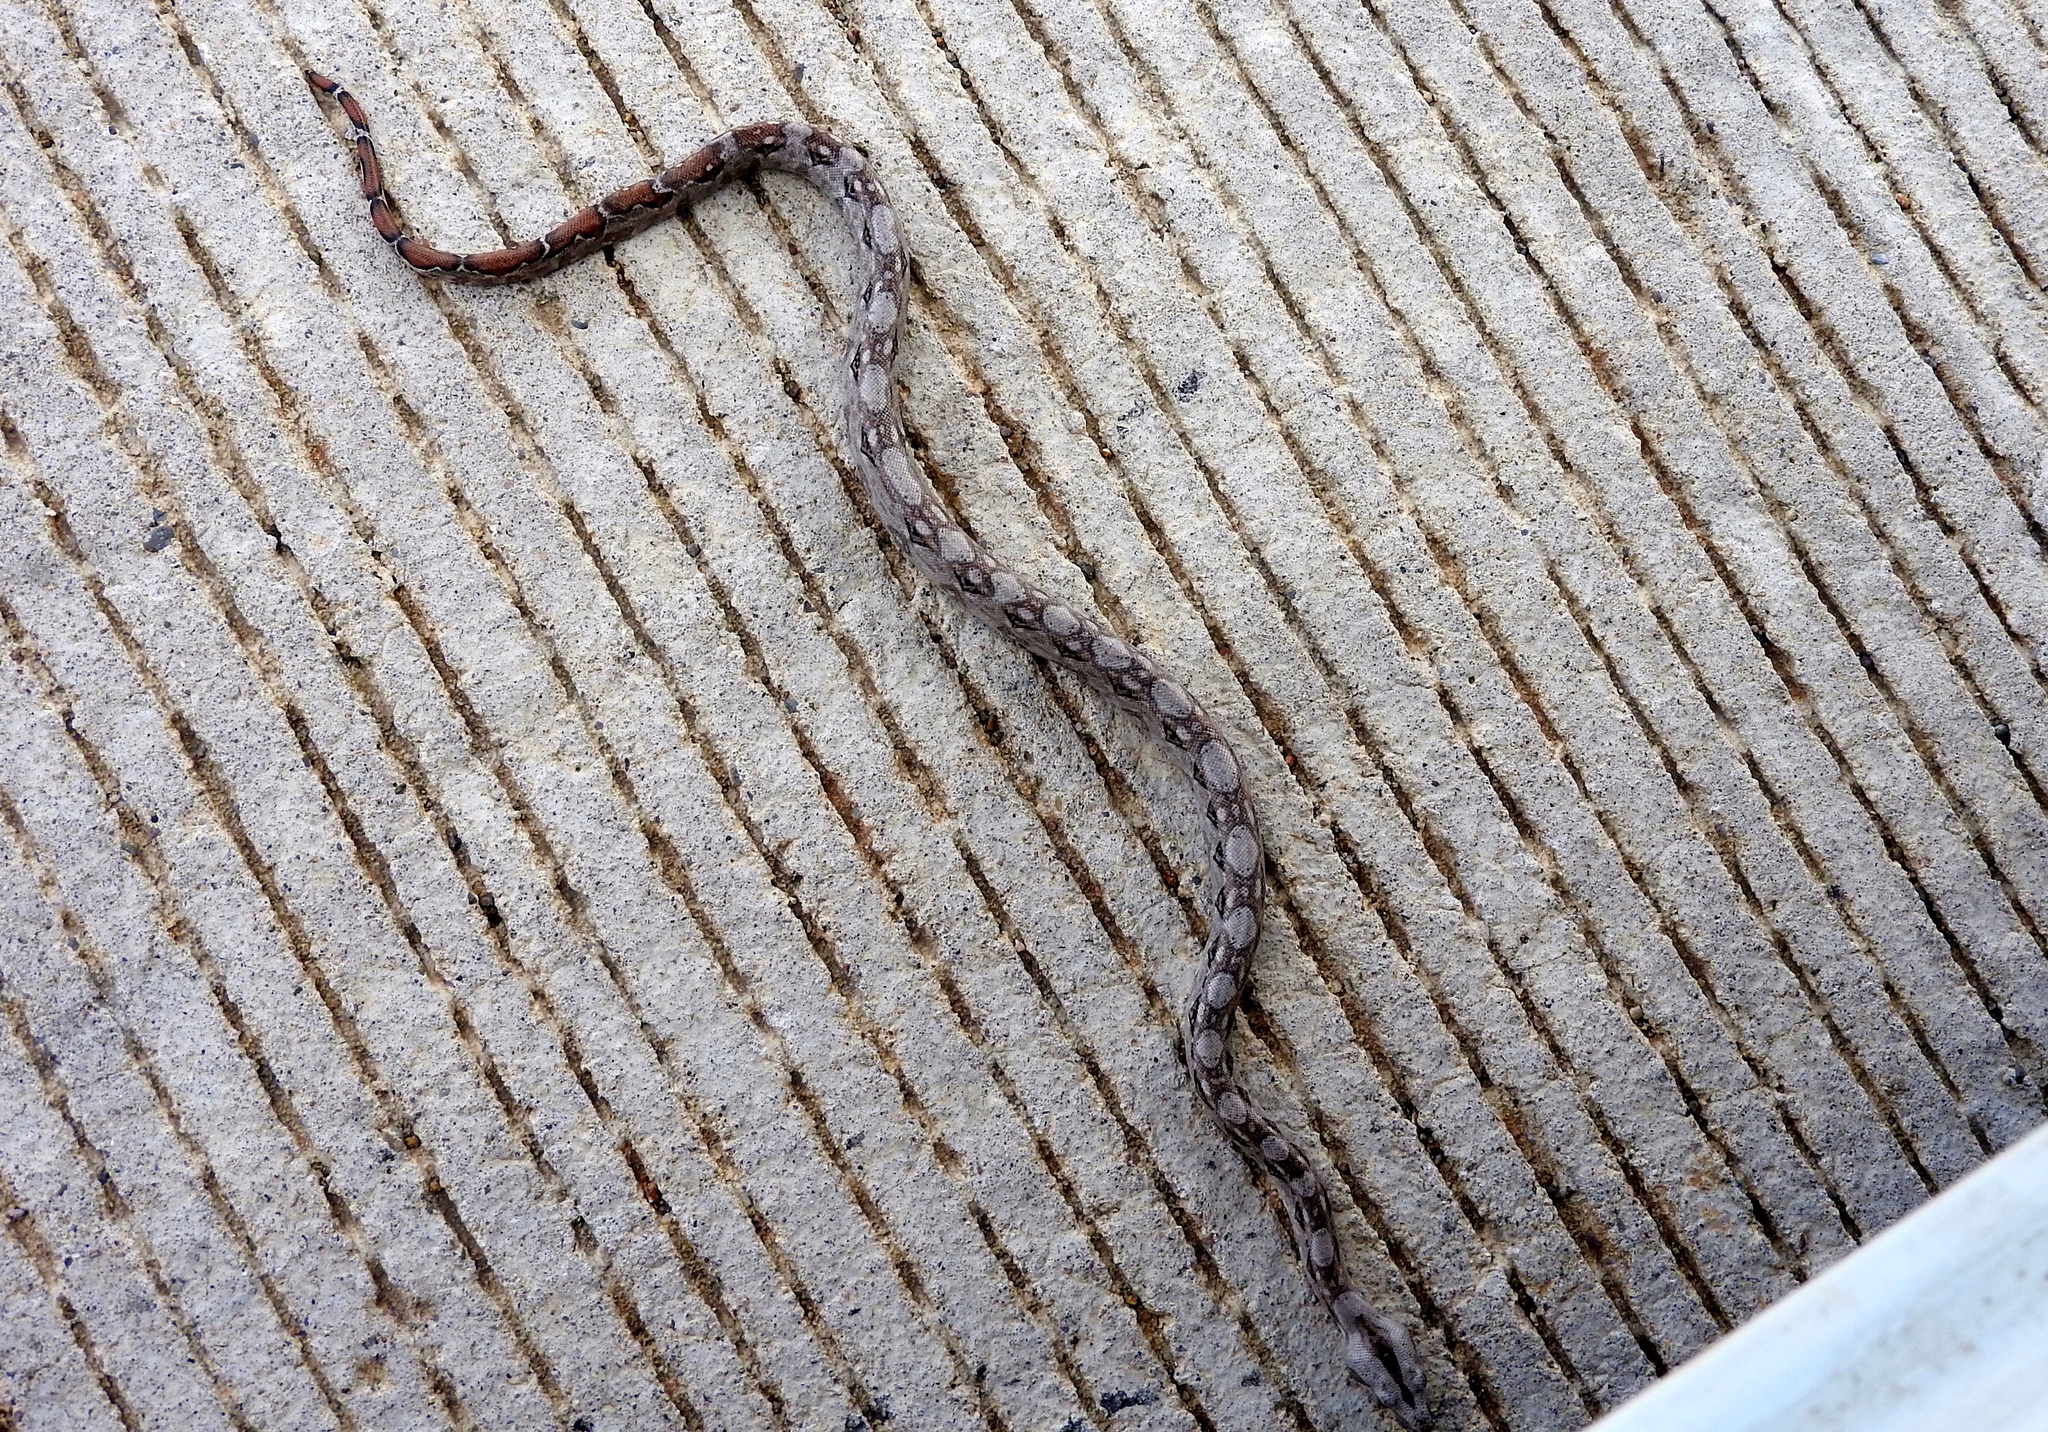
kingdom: Animalia
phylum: Chordata
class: Squamata
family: Boidae
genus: Boa
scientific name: Boa
